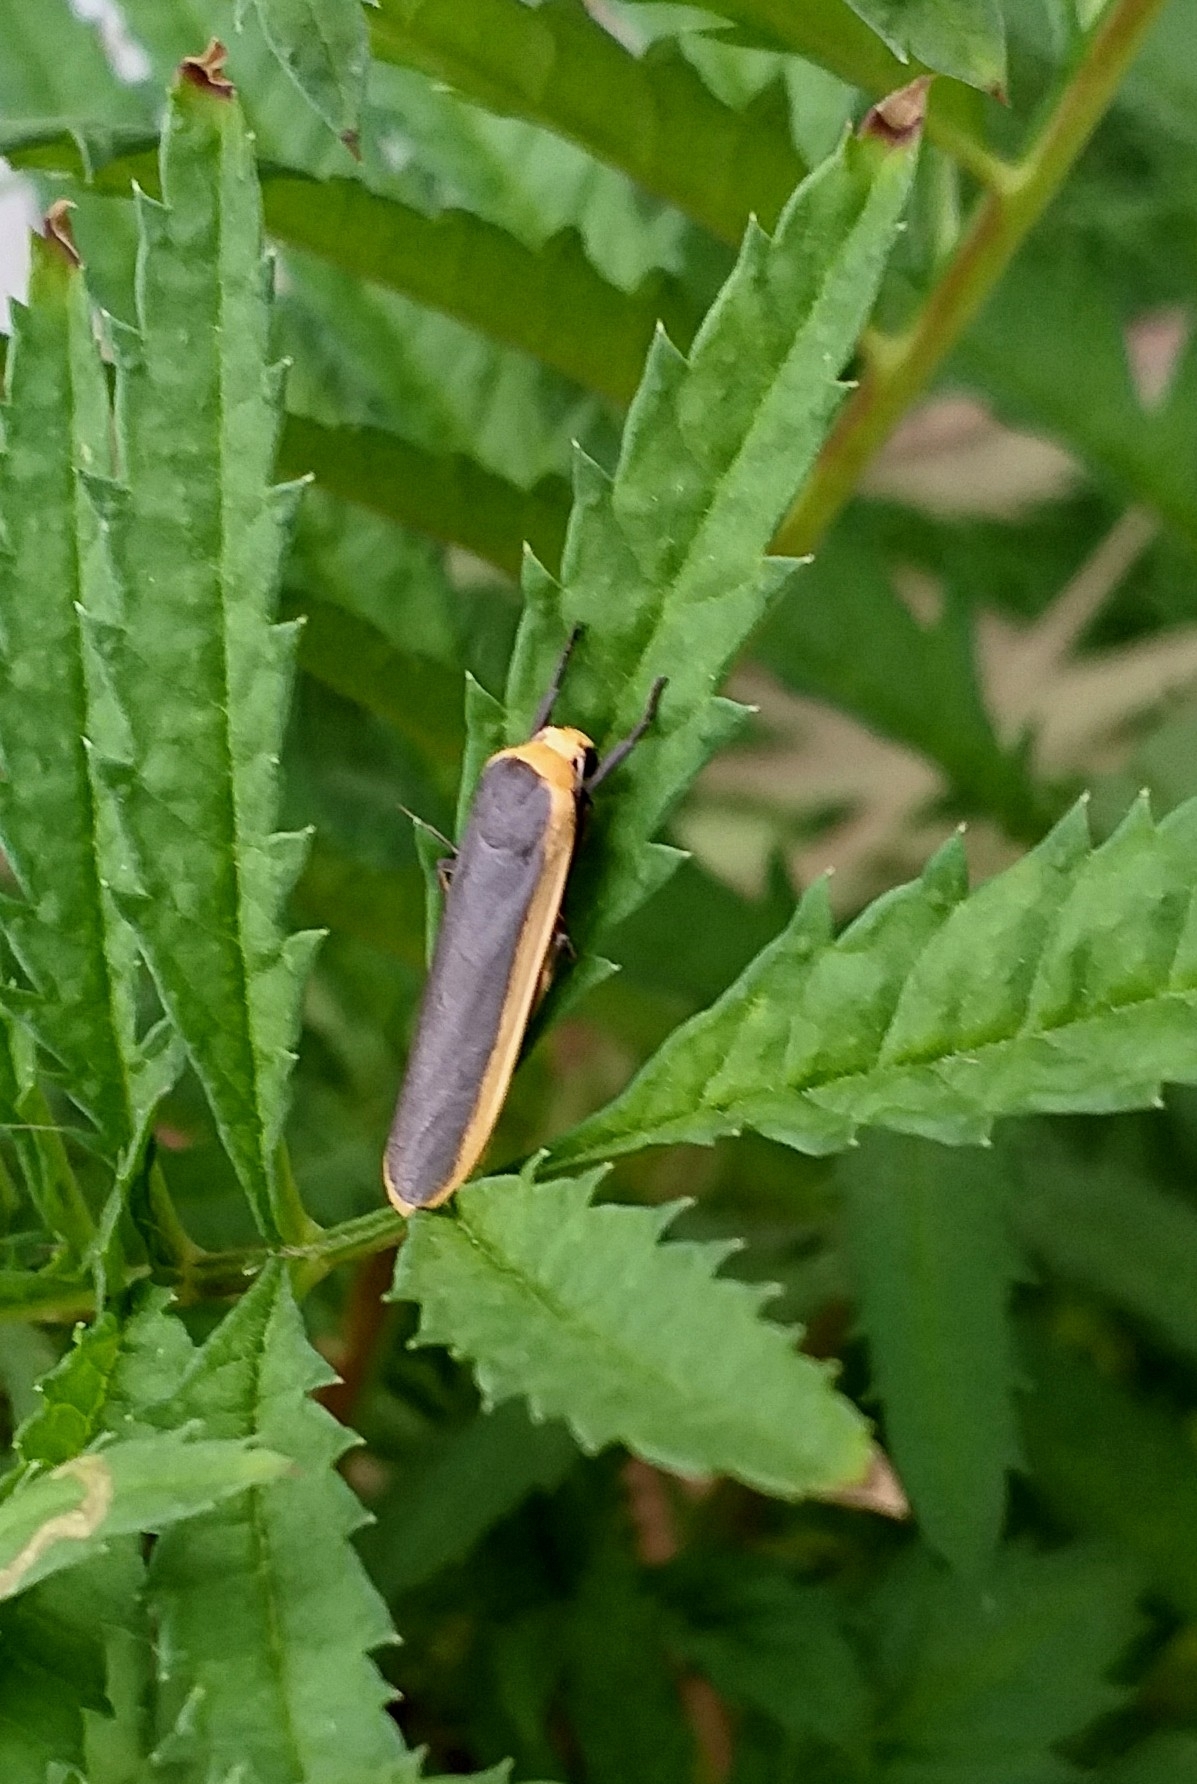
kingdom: Animalia
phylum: Arthropoda
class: Insecta
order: Lepidoptera
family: Erebidae
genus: Brunia
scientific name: Brunia antica
